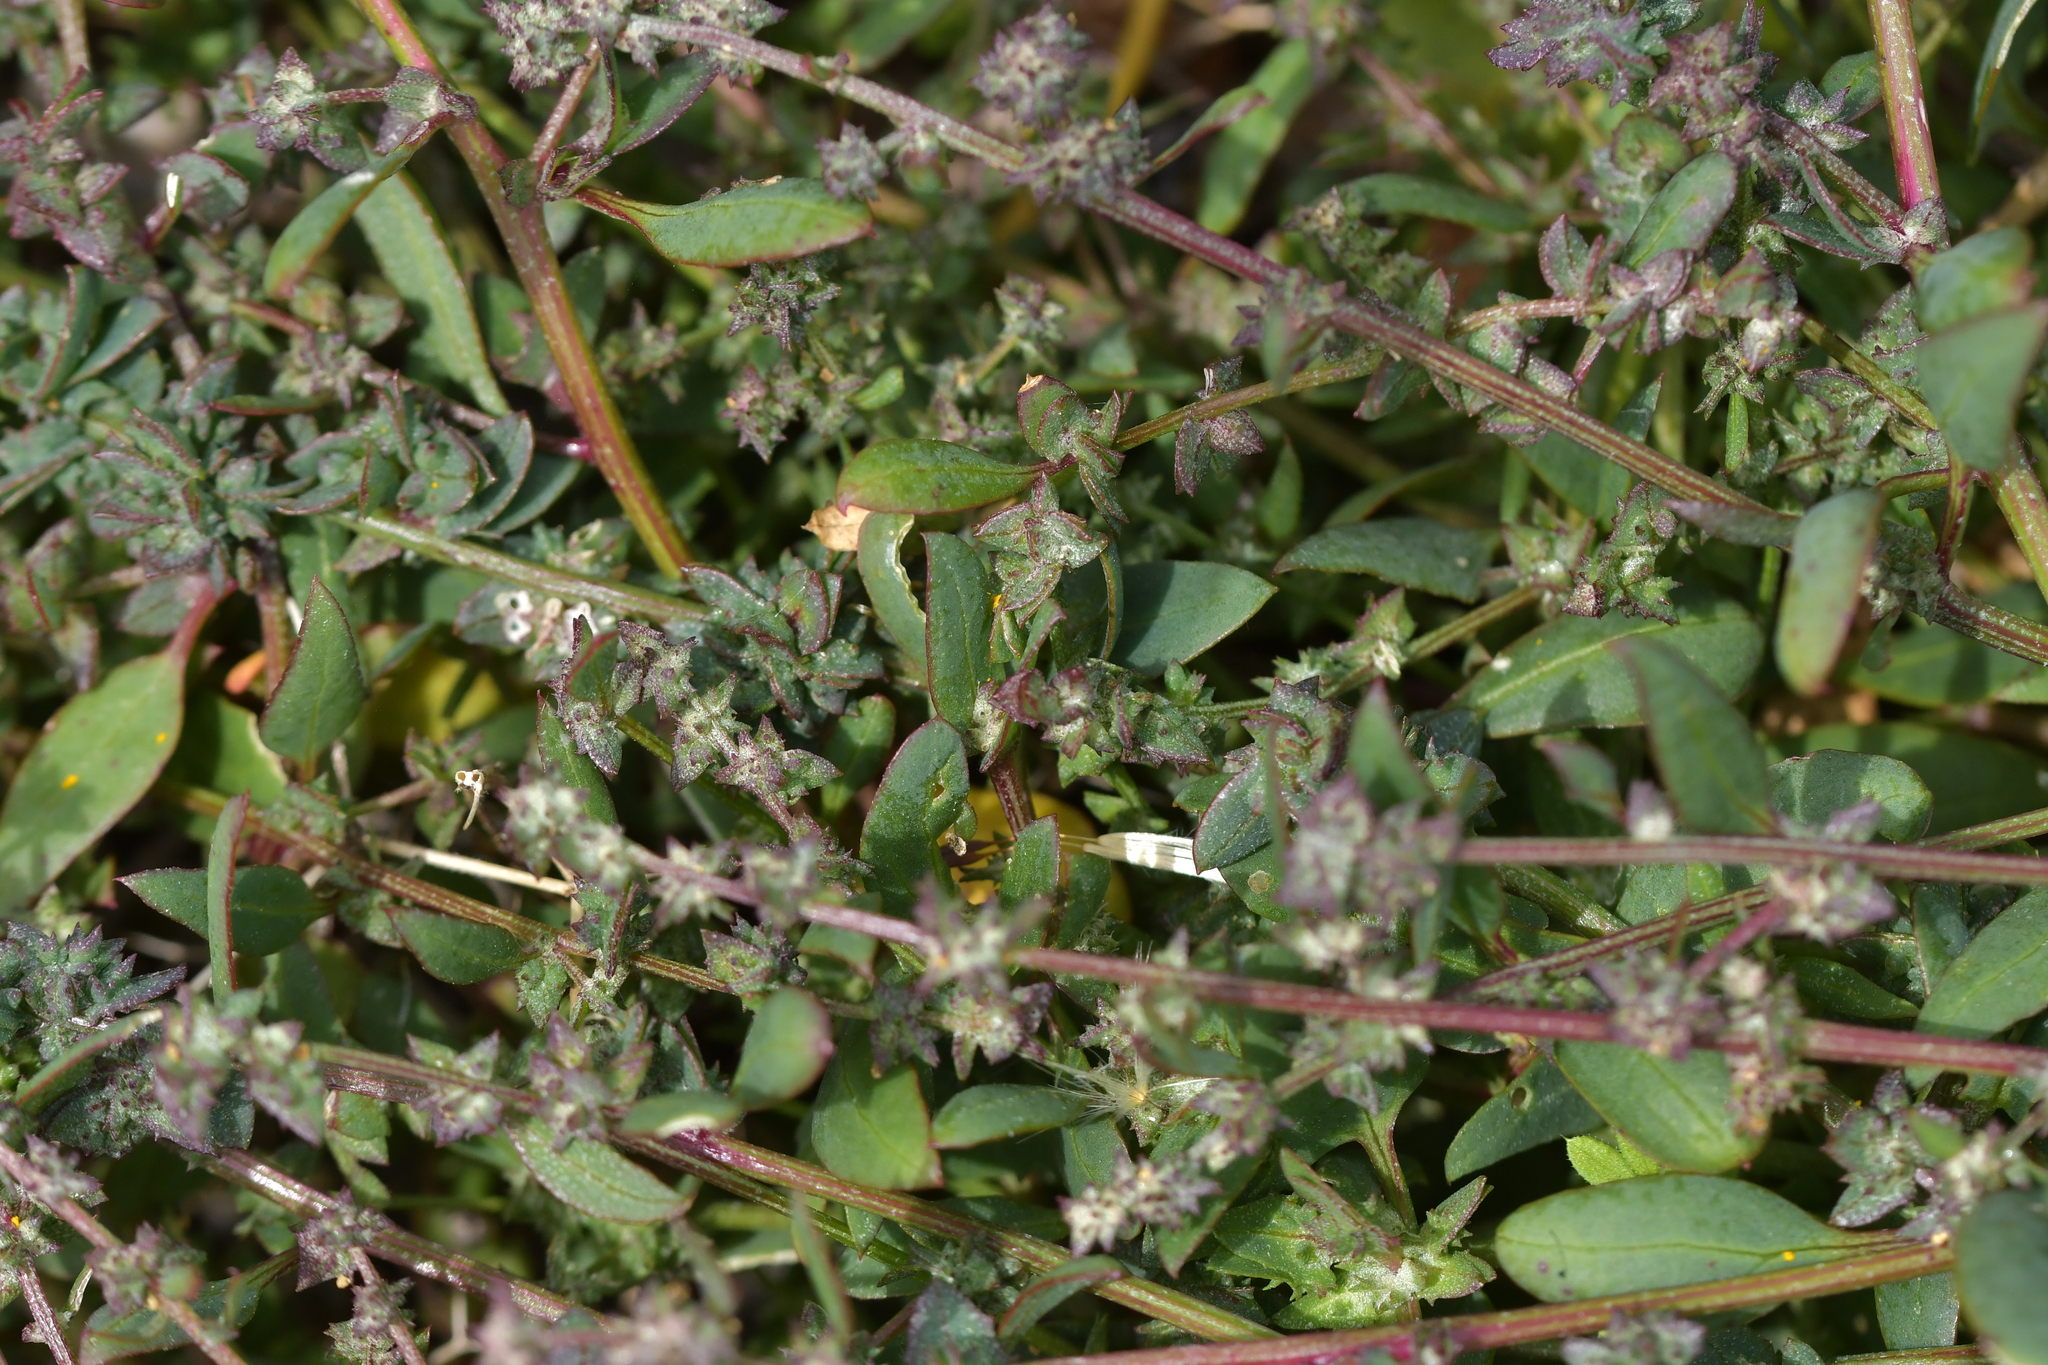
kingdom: Plantae
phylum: Tracheophyta
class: Magnoliopsida
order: Caryophyllales
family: Amaranthaceae
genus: Atriplex
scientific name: Atriplex prostrata
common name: Spear-leaved orache
